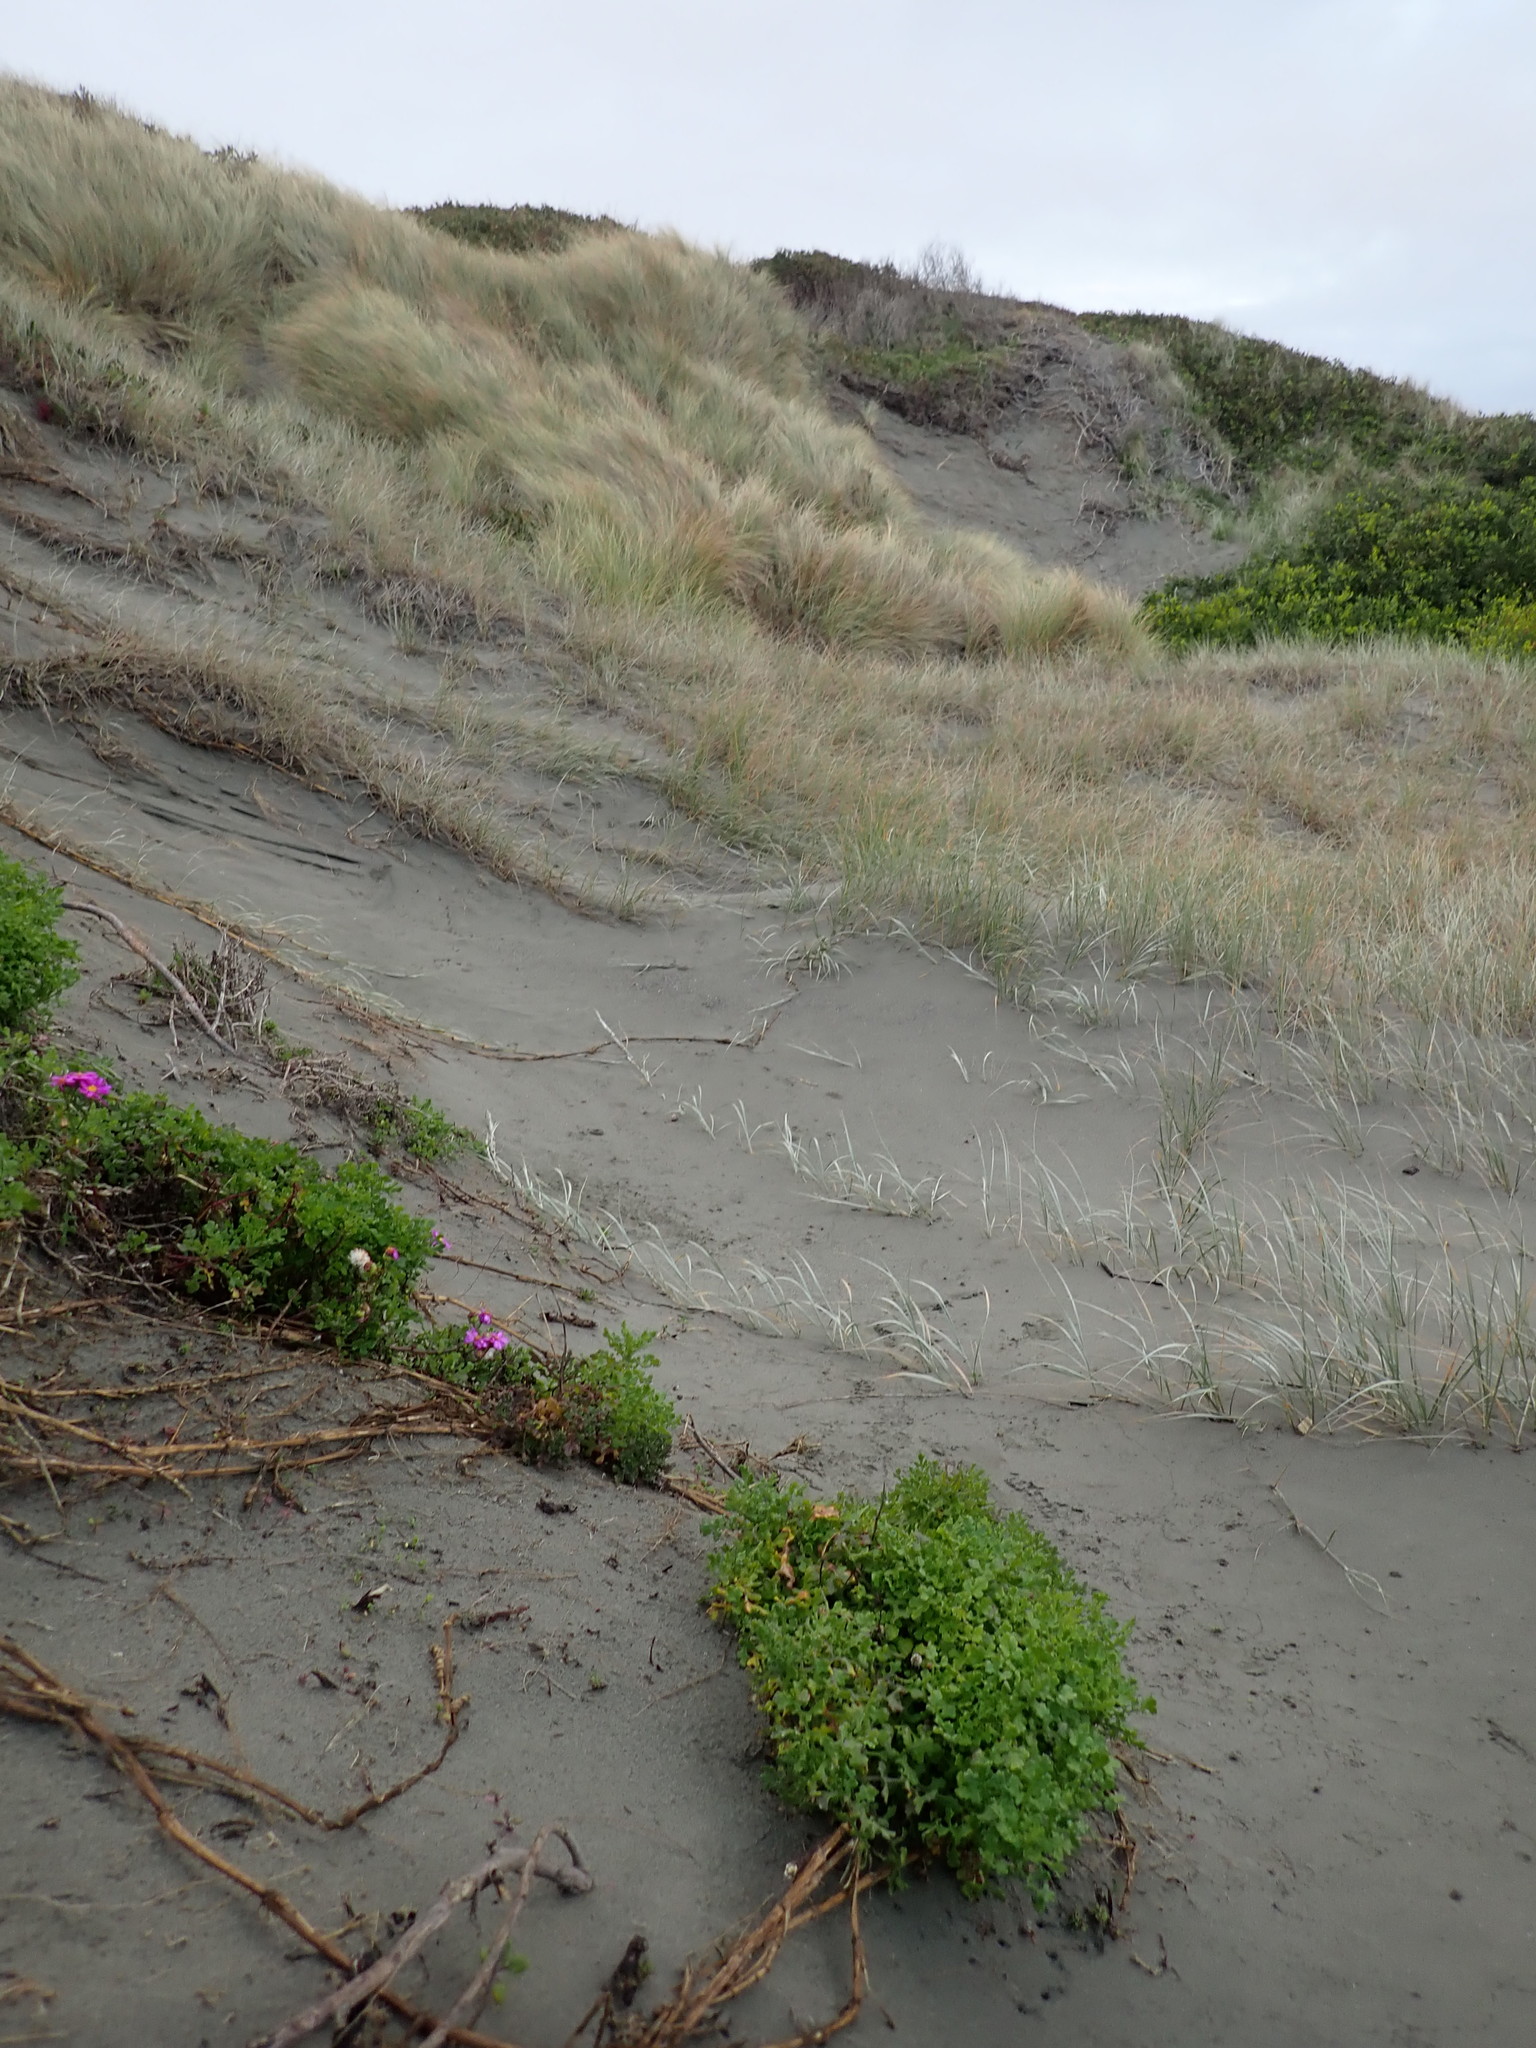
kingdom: Plantae
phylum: Tracheophyta
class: Magnoliopsida
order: Asterales
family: Asteraceae
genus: Senecio
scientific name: Senecio elegans
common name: Purple groundsel
